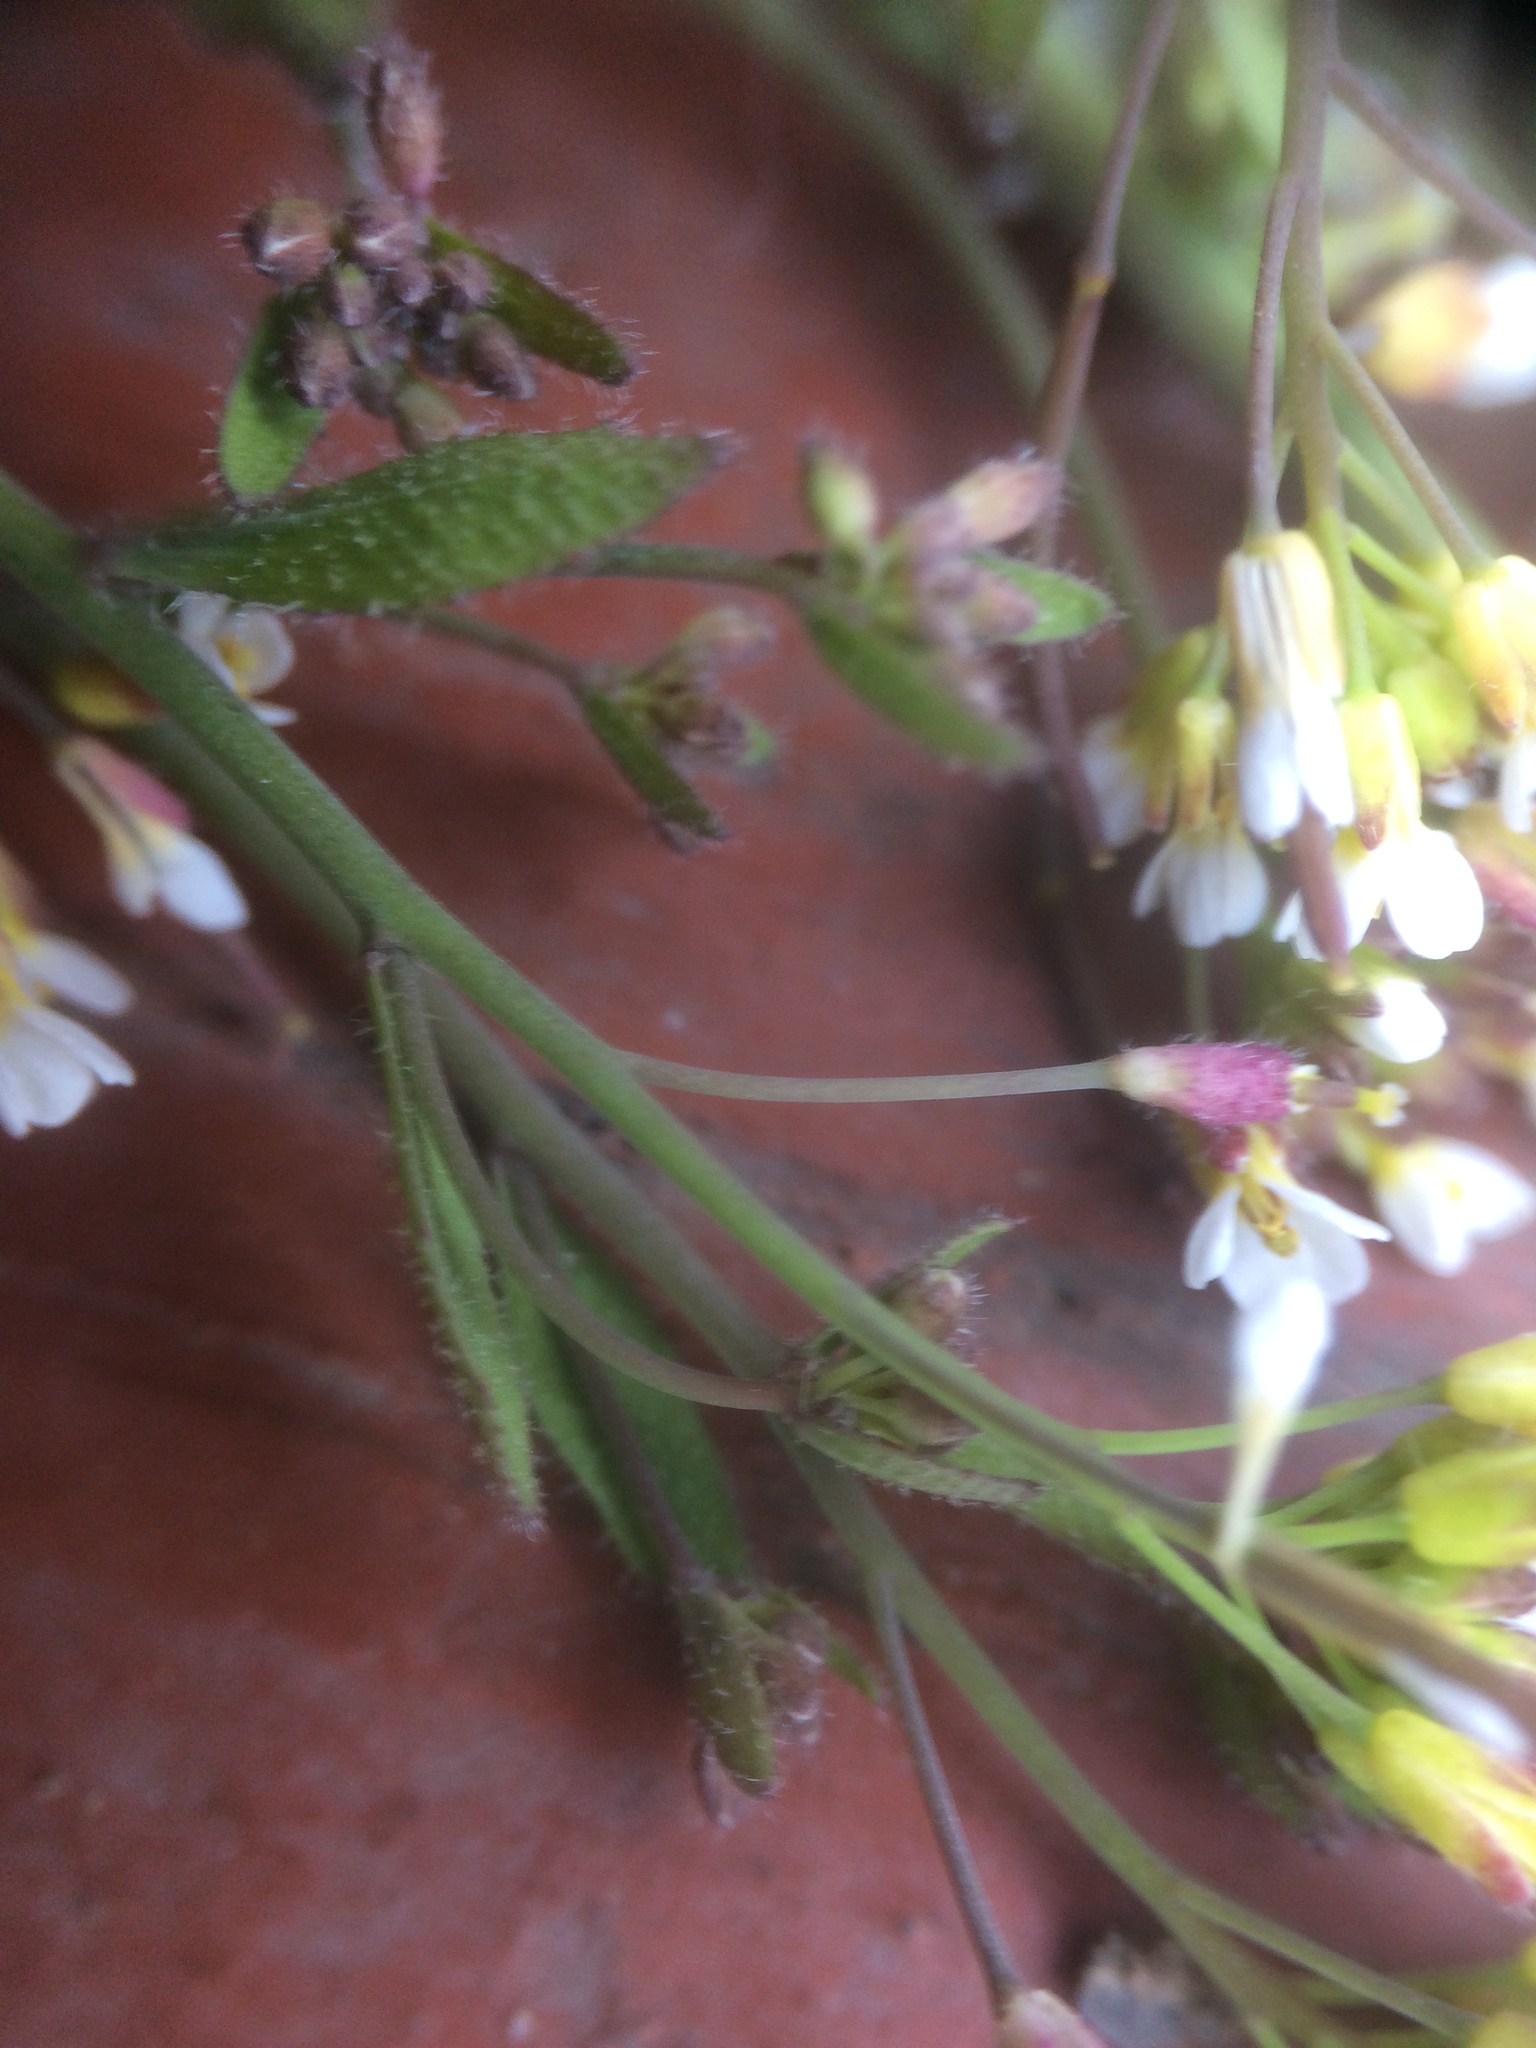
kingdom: Plantae
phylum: Tracheophyta
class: Magnoliopsida
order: Brassicales
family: Brassicaceae
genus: Arabidopsis
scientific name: Arabidopsis thaliana
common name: Thale cress
